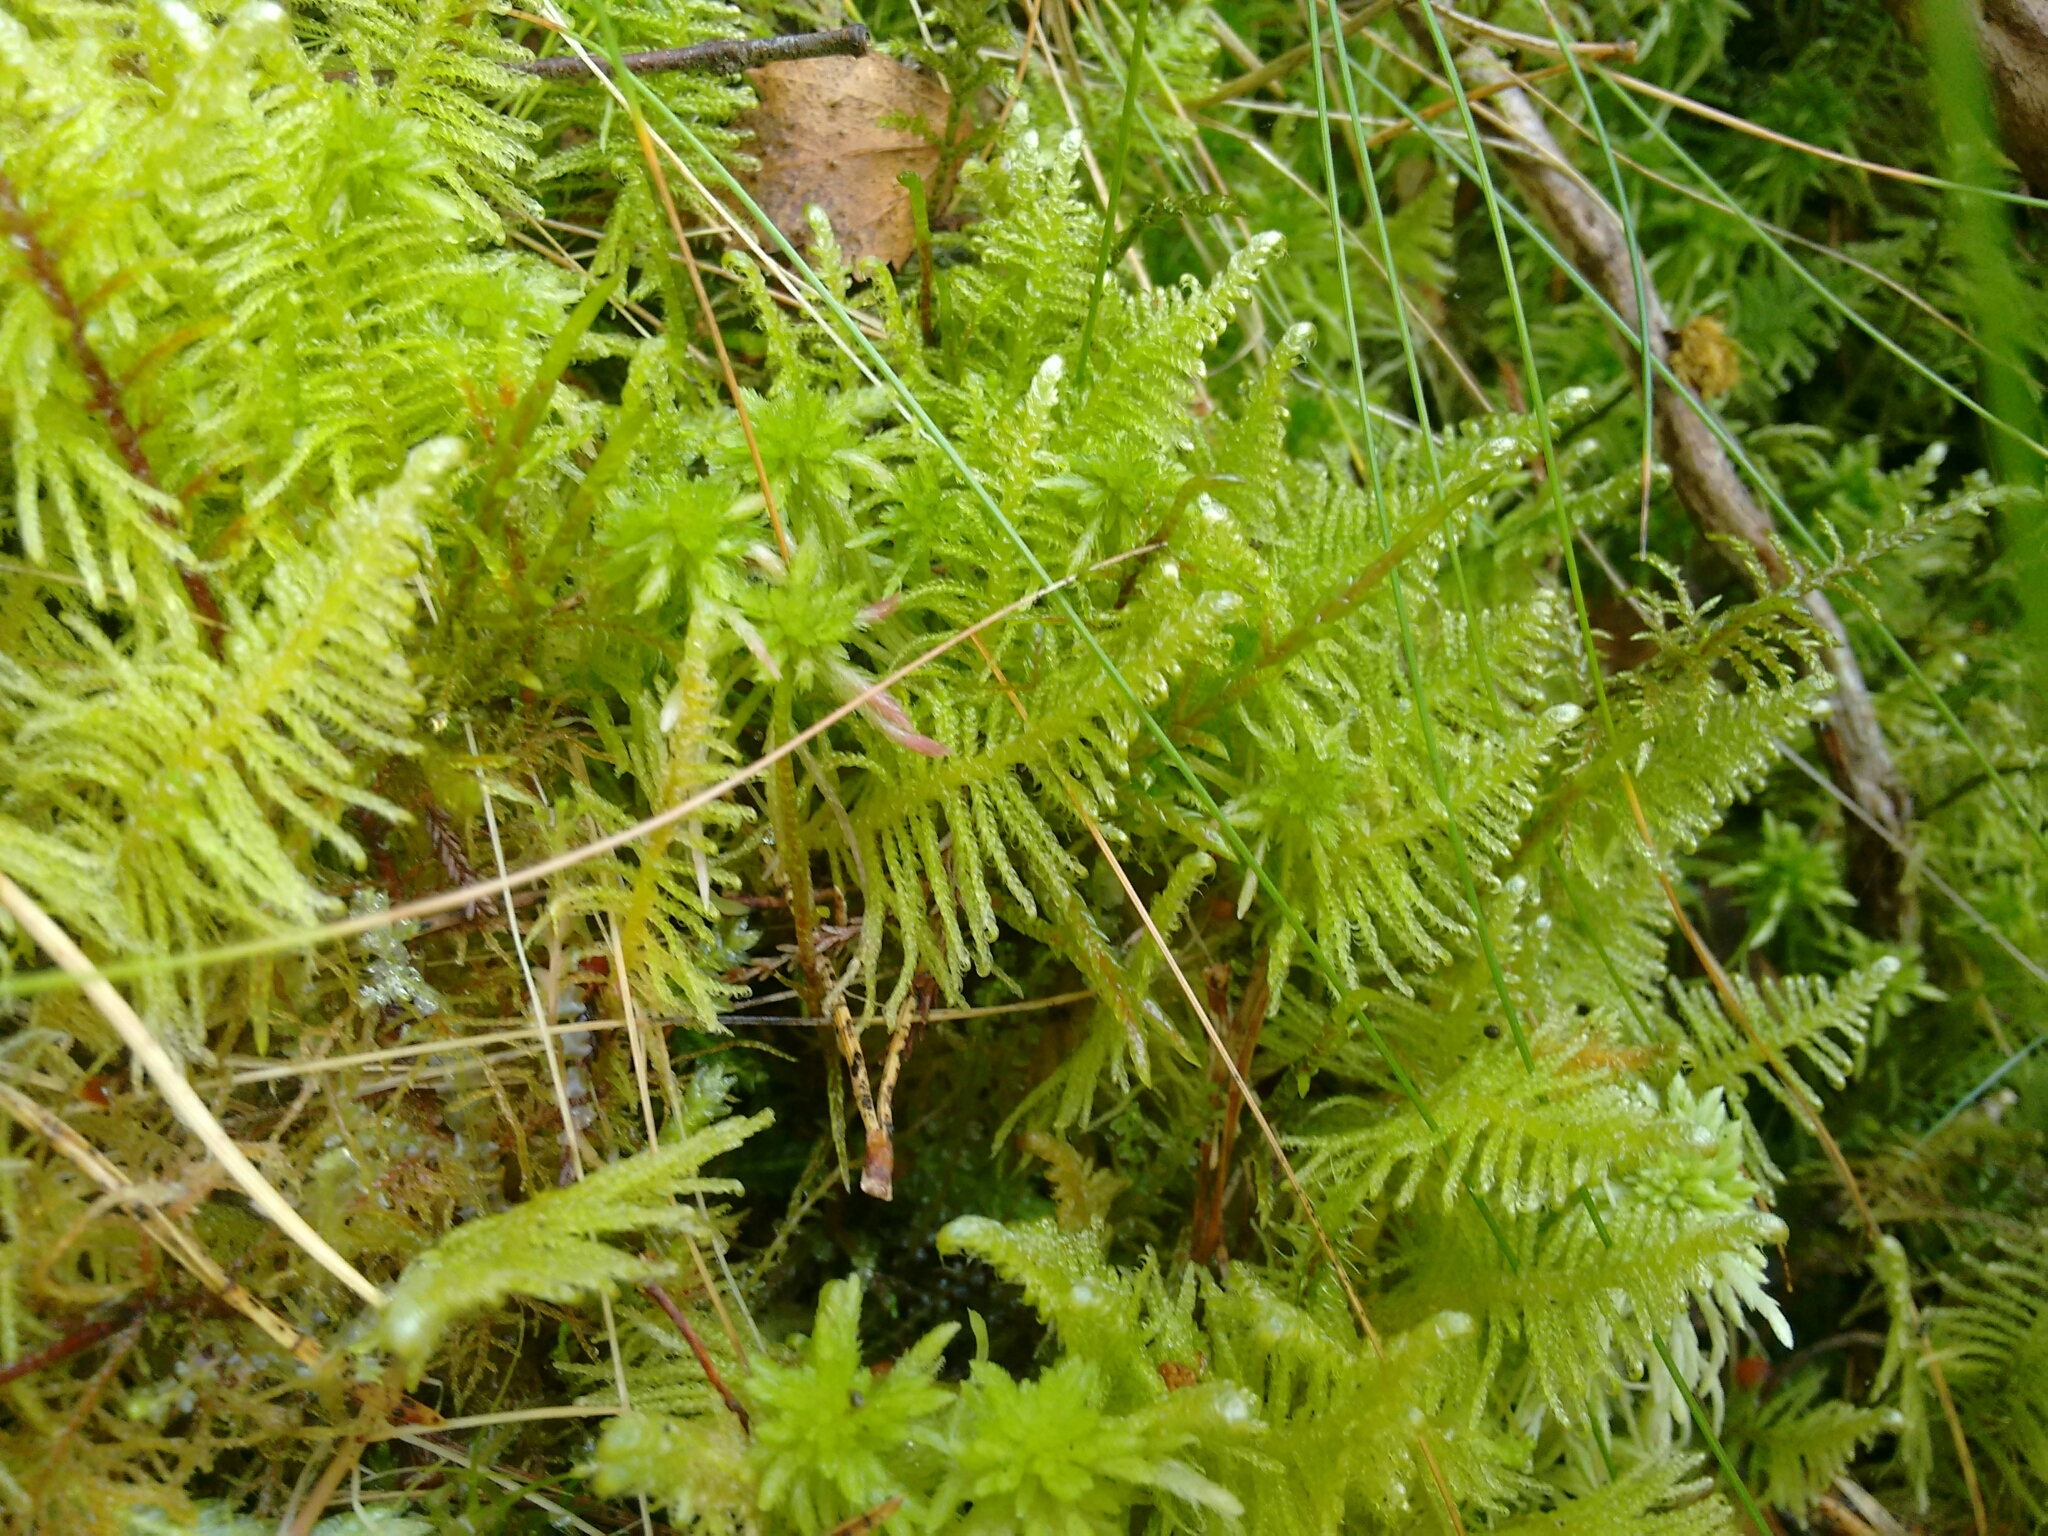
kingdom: Plantae
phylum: Bryophyta
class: Bryopsida
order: Hypnales
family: Pylaisiaceae
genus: Ptilium
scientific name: Ptilium crista-castrensis
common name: Knight's plume moss
